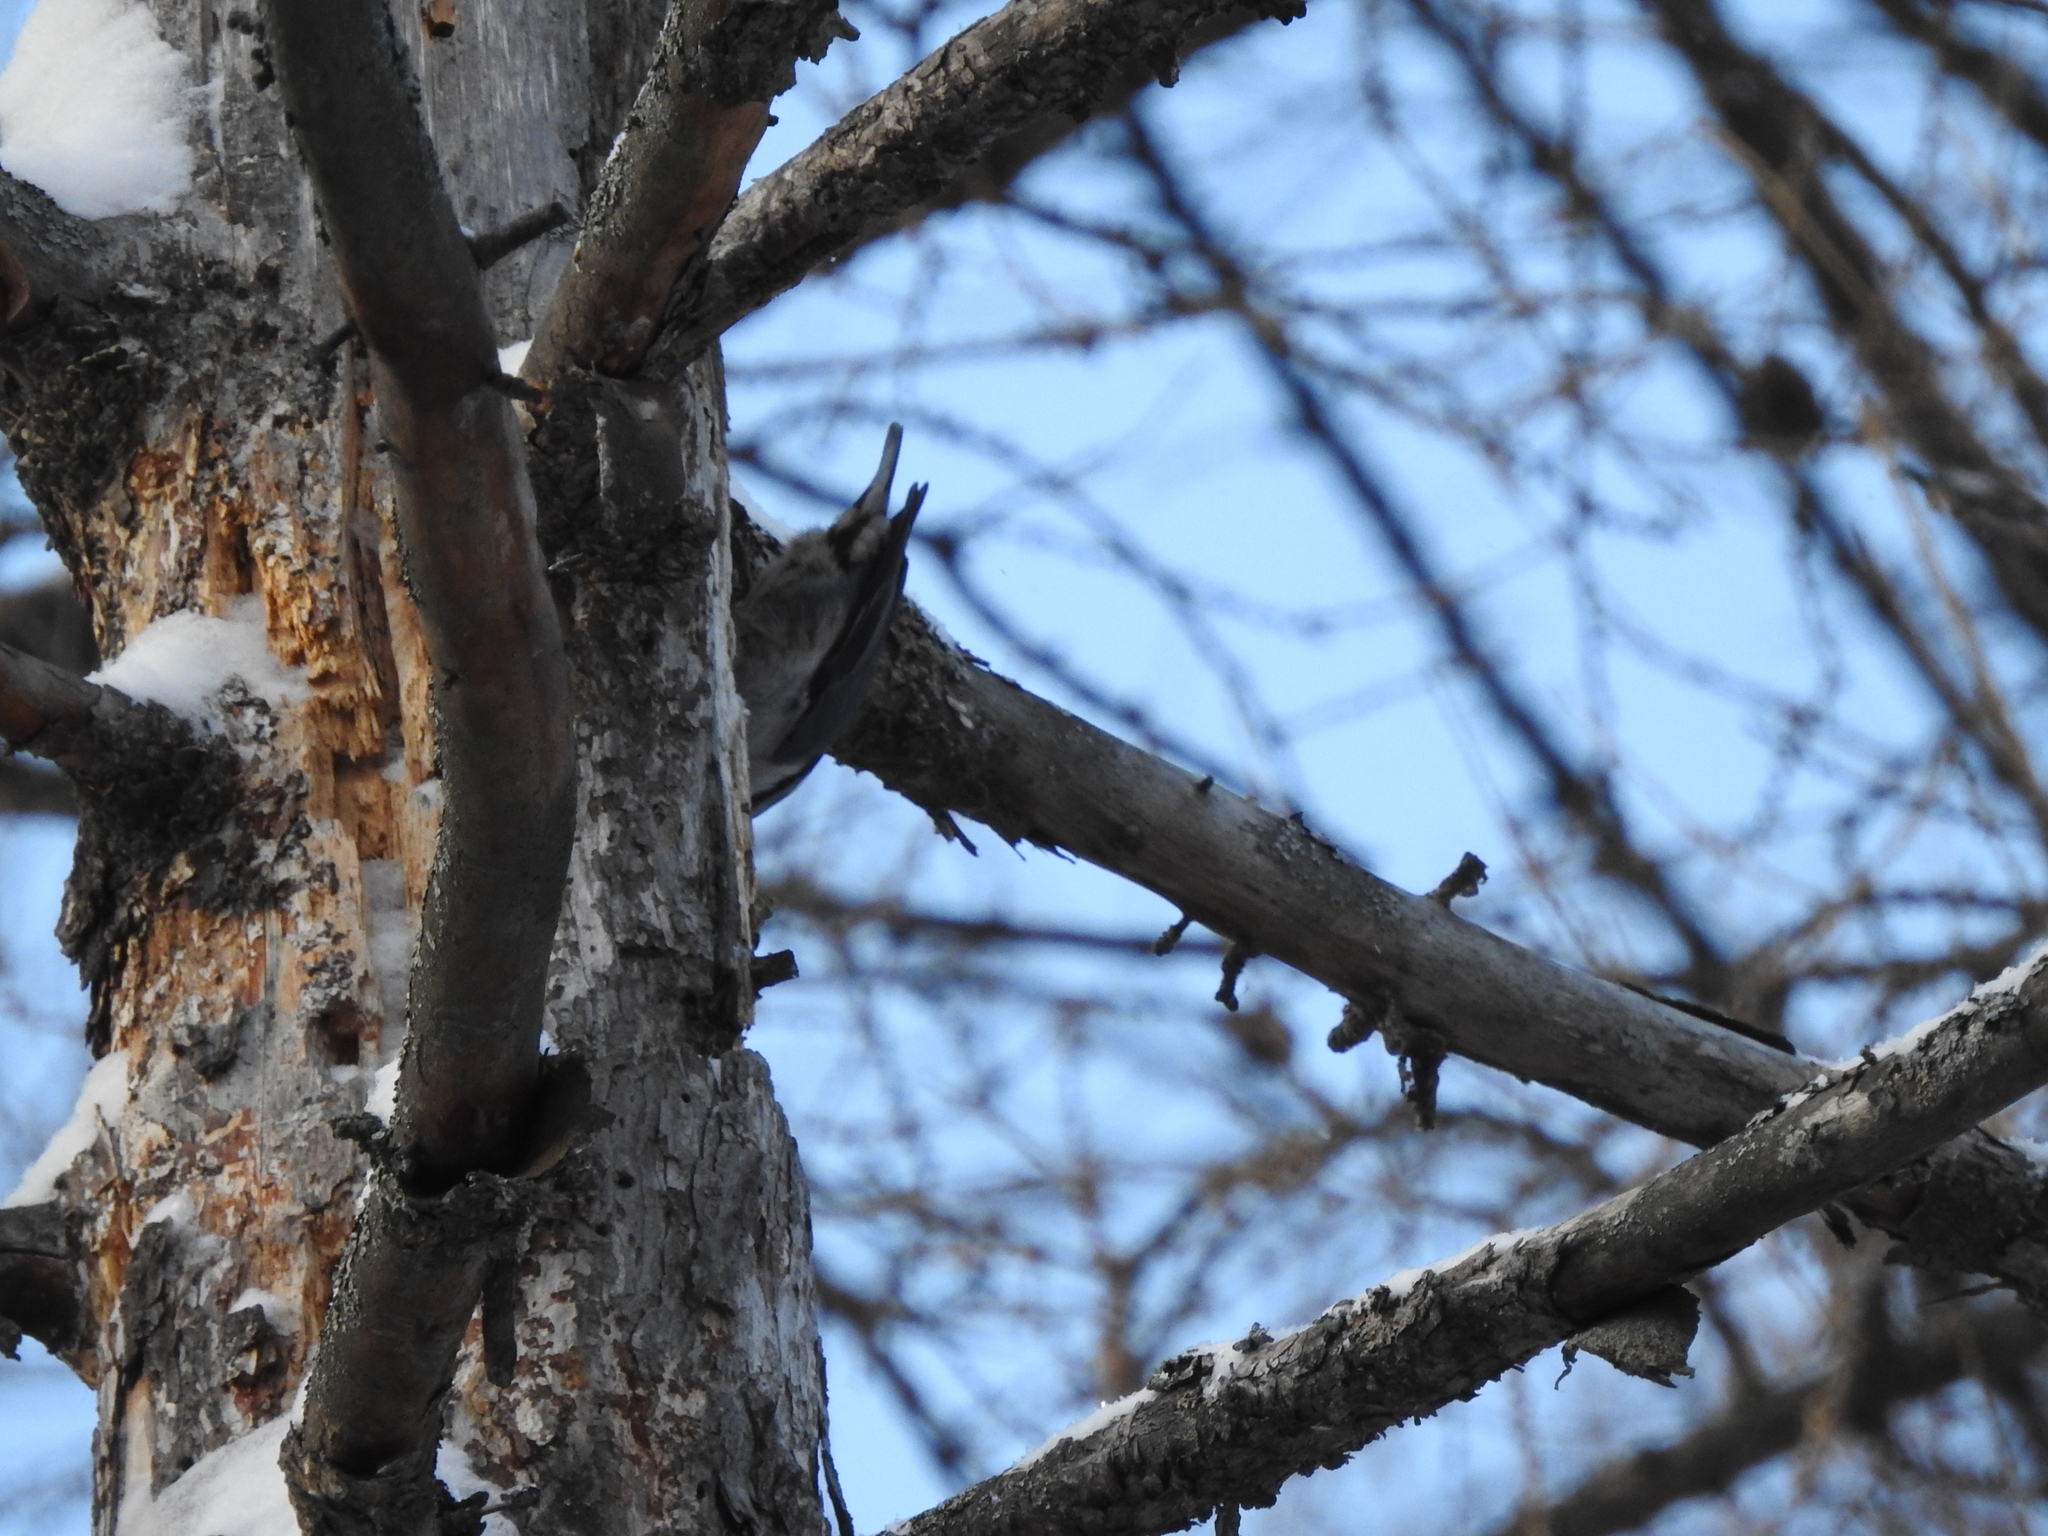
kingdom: Animalia
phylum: Chordata
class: Aves
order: Passeriformes
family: Sittidae
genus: Sitta
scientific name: Sitta europaea
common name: Eurasian nuthatch
